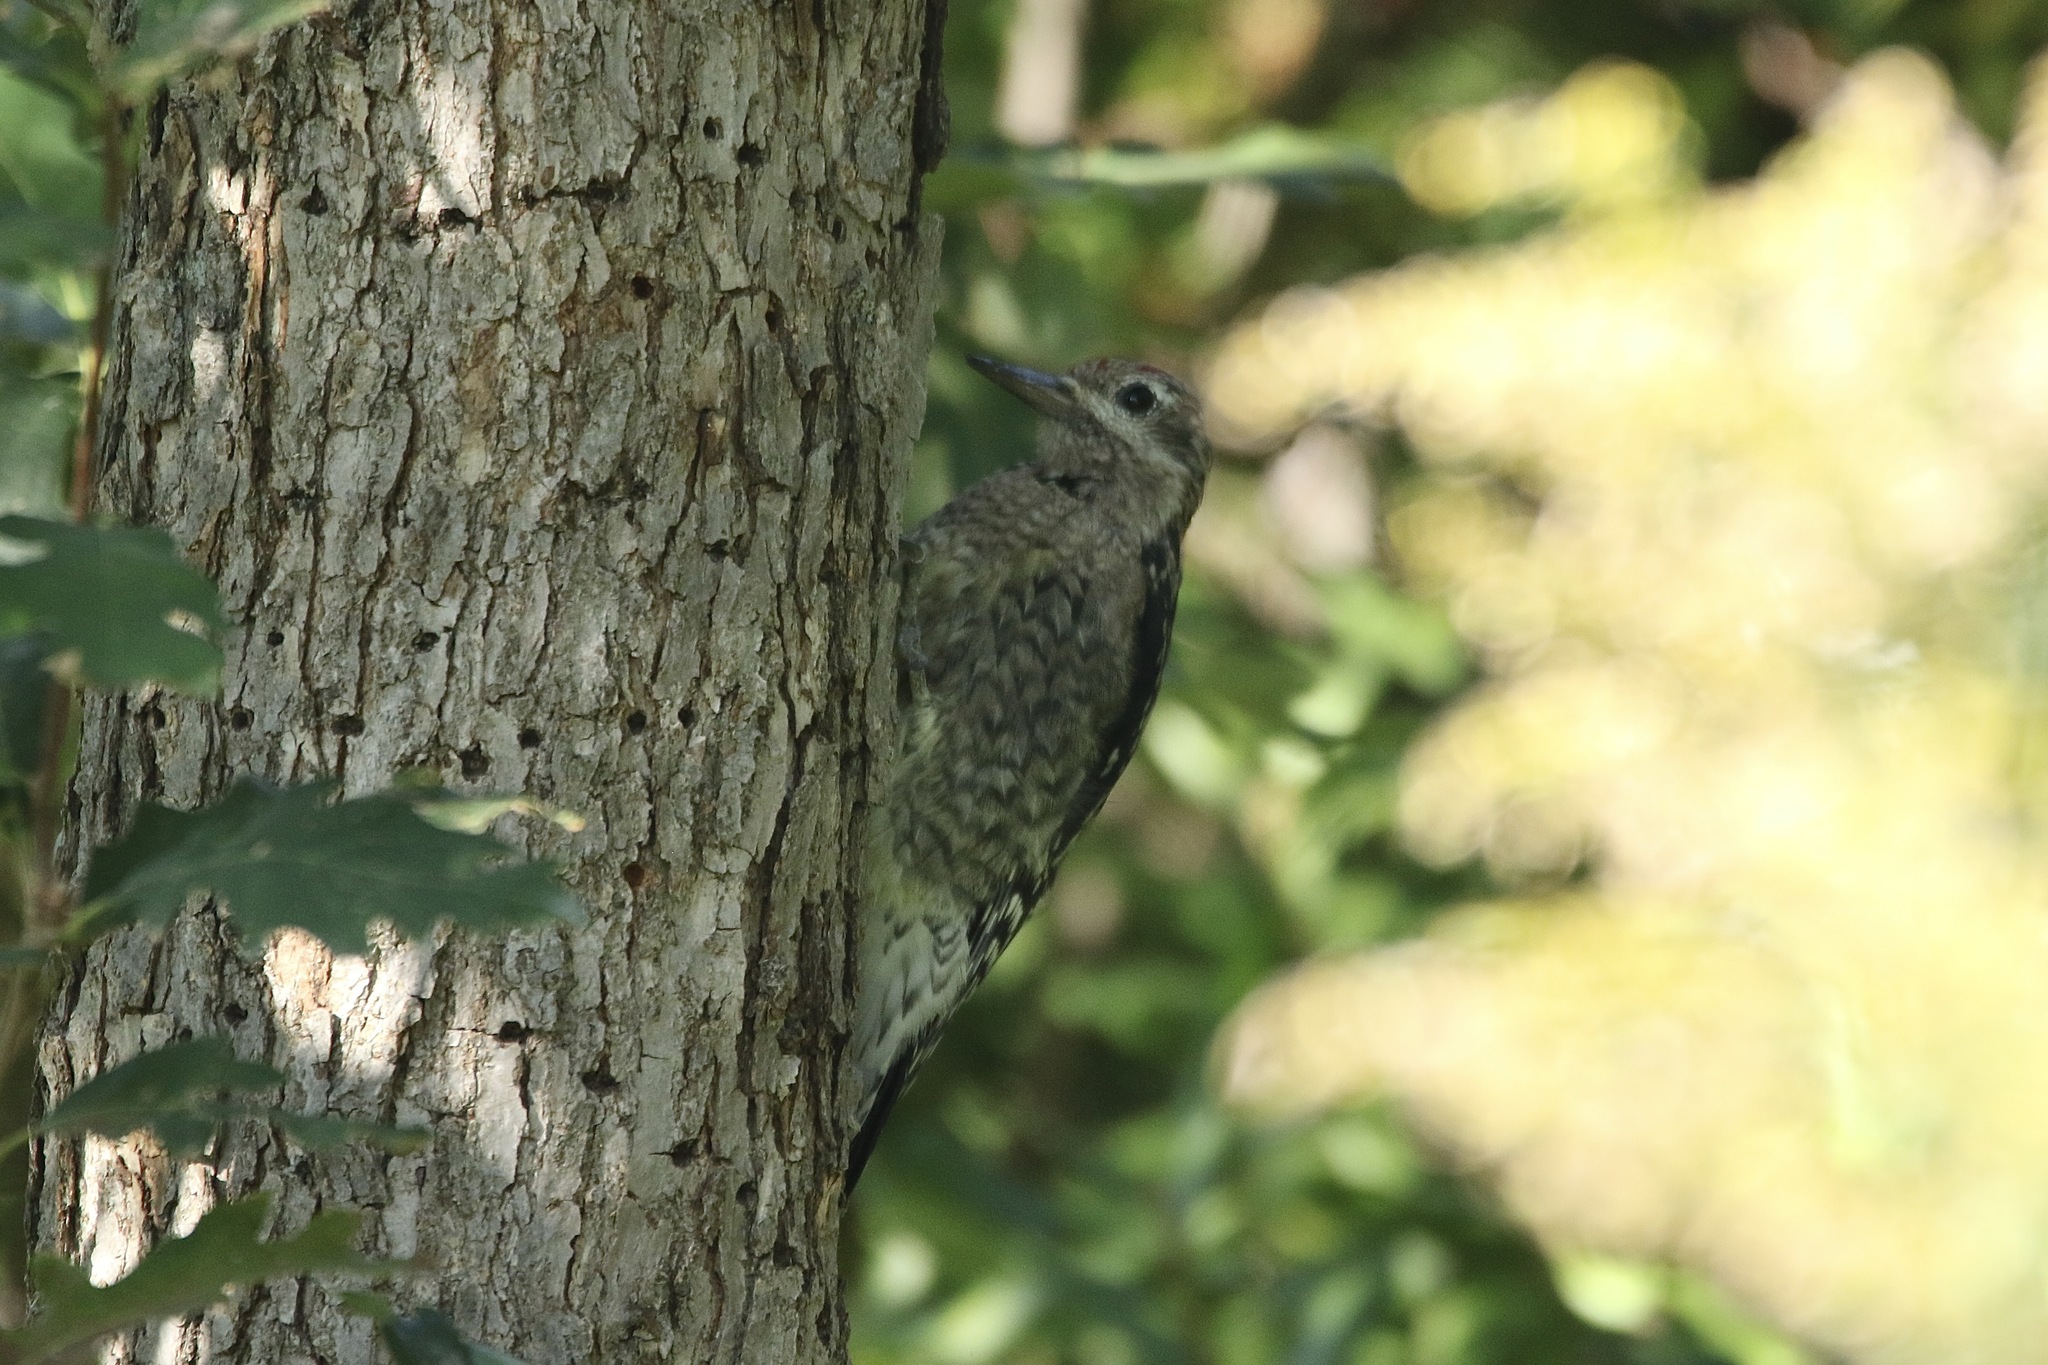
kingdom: Animalia
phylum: Chordata
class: Aves
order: Piciformes
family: Picidae
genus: Sphyrapicus
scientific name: Sphyrapicus varius
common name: Yellow-bellied sapsucker
